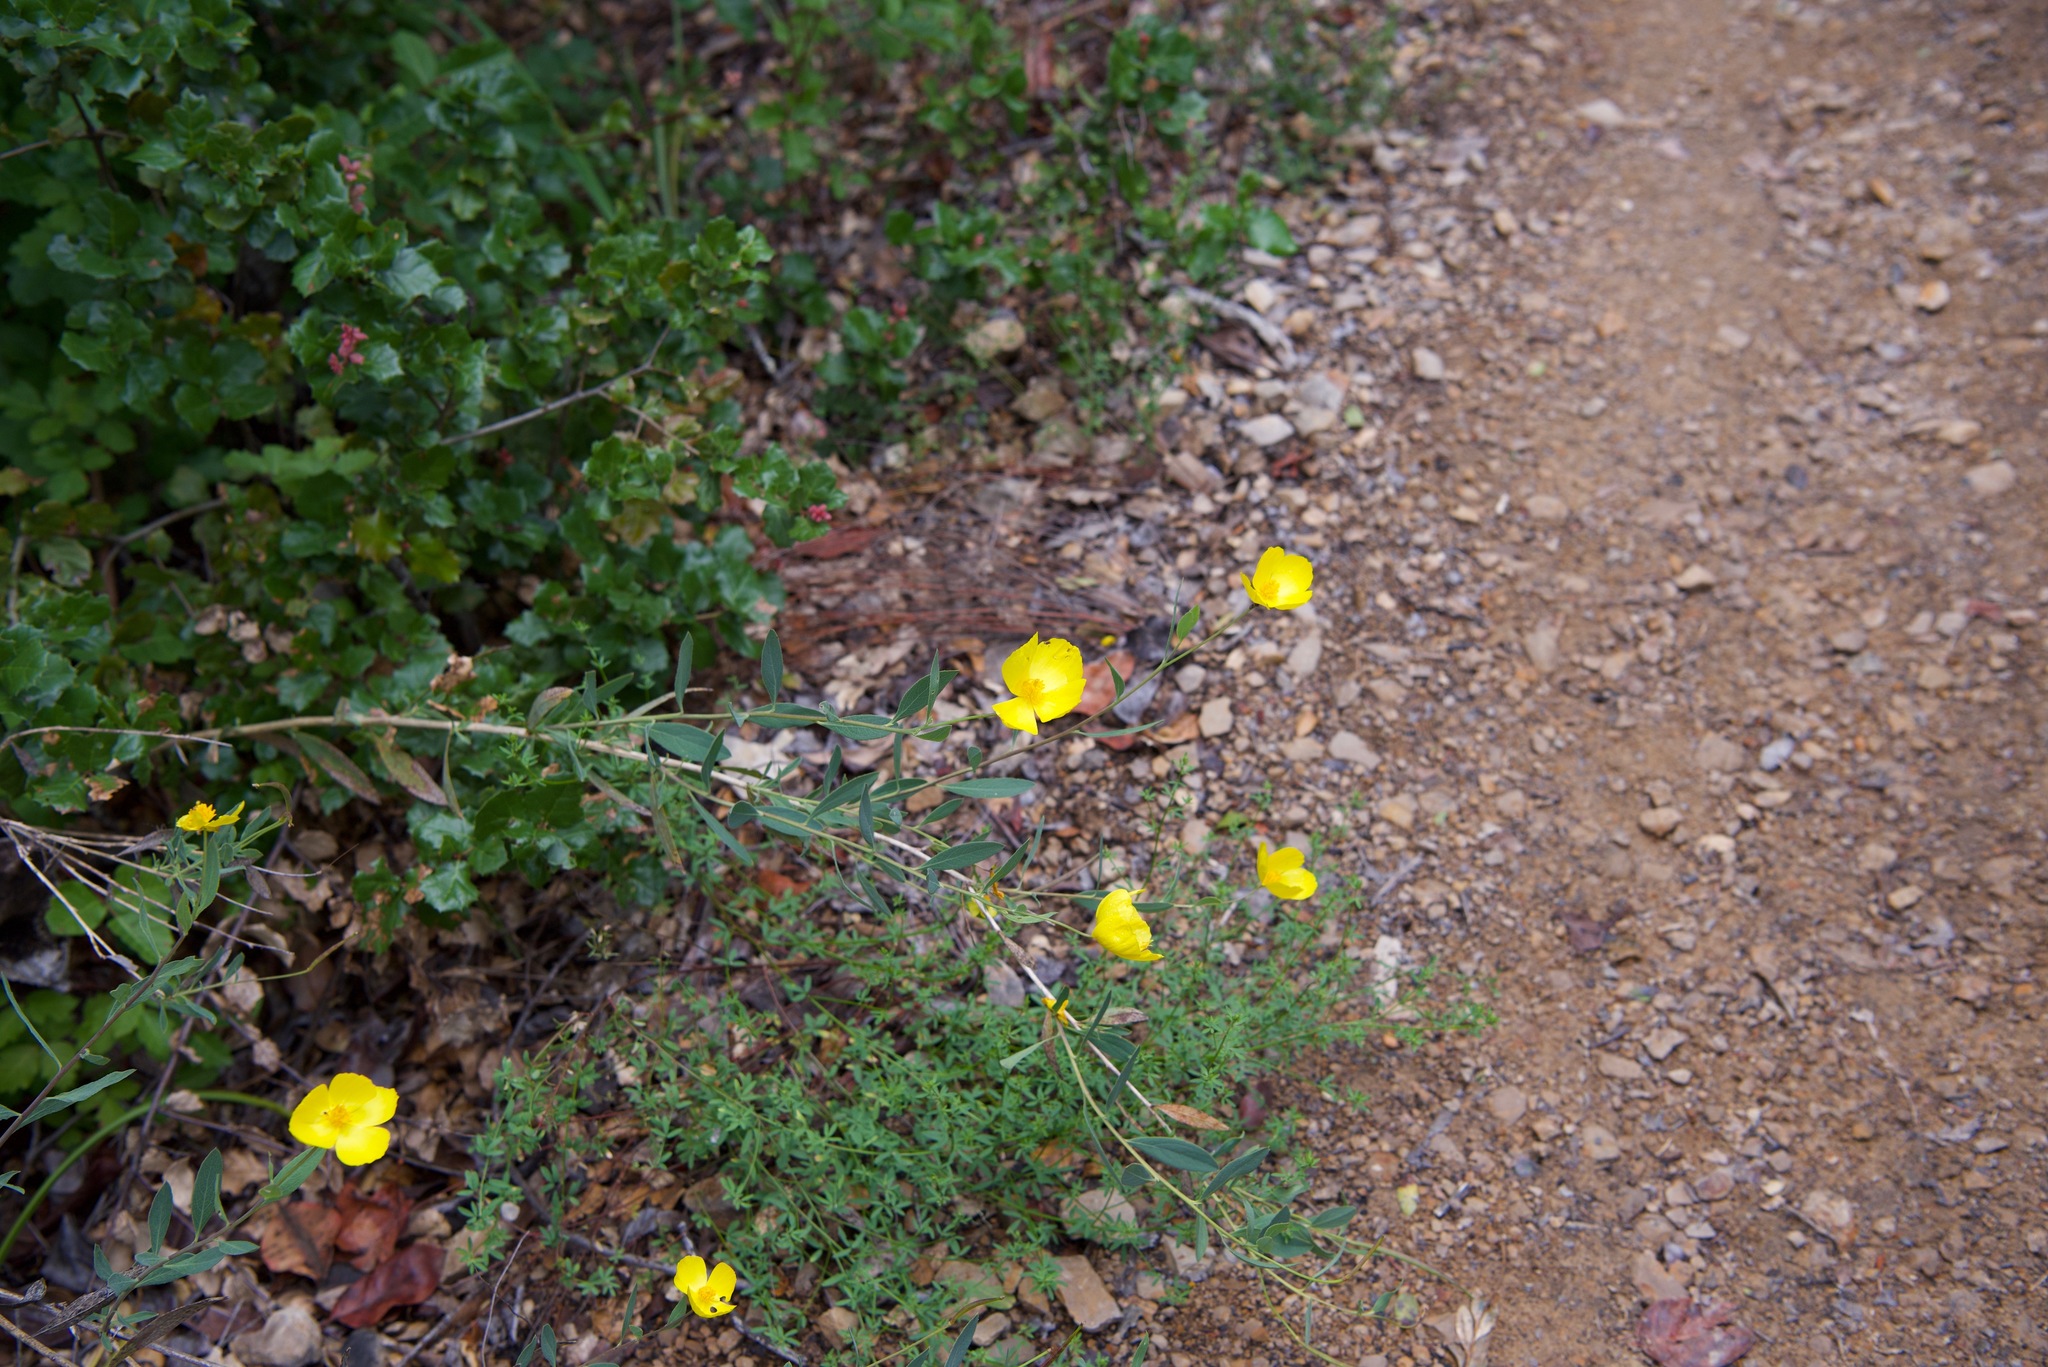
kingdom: Plantae
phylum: Tracheophyta
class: Magnoliopsida
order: Ranunculales
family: Papaveraceae
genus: Dendromecon
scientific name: Dendromecon rigida
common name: Tree poppy
